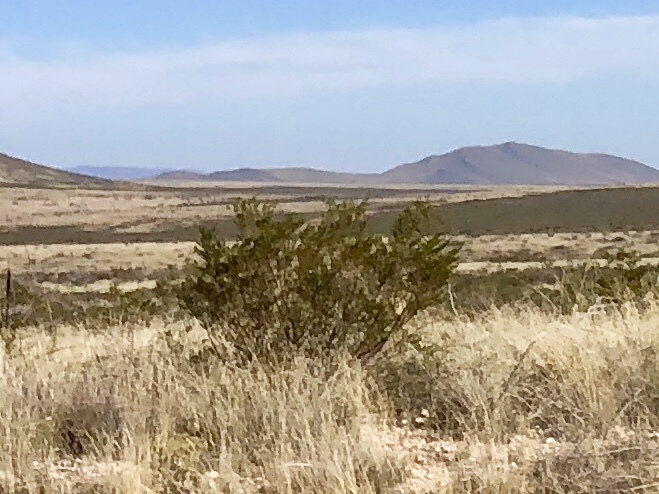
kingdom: Plantae
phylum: Tracheophyta
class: Magnoliopsida
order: Zygophyllales
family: Zygophyllaceae
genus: Larrea
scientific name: Larrea tridentata
